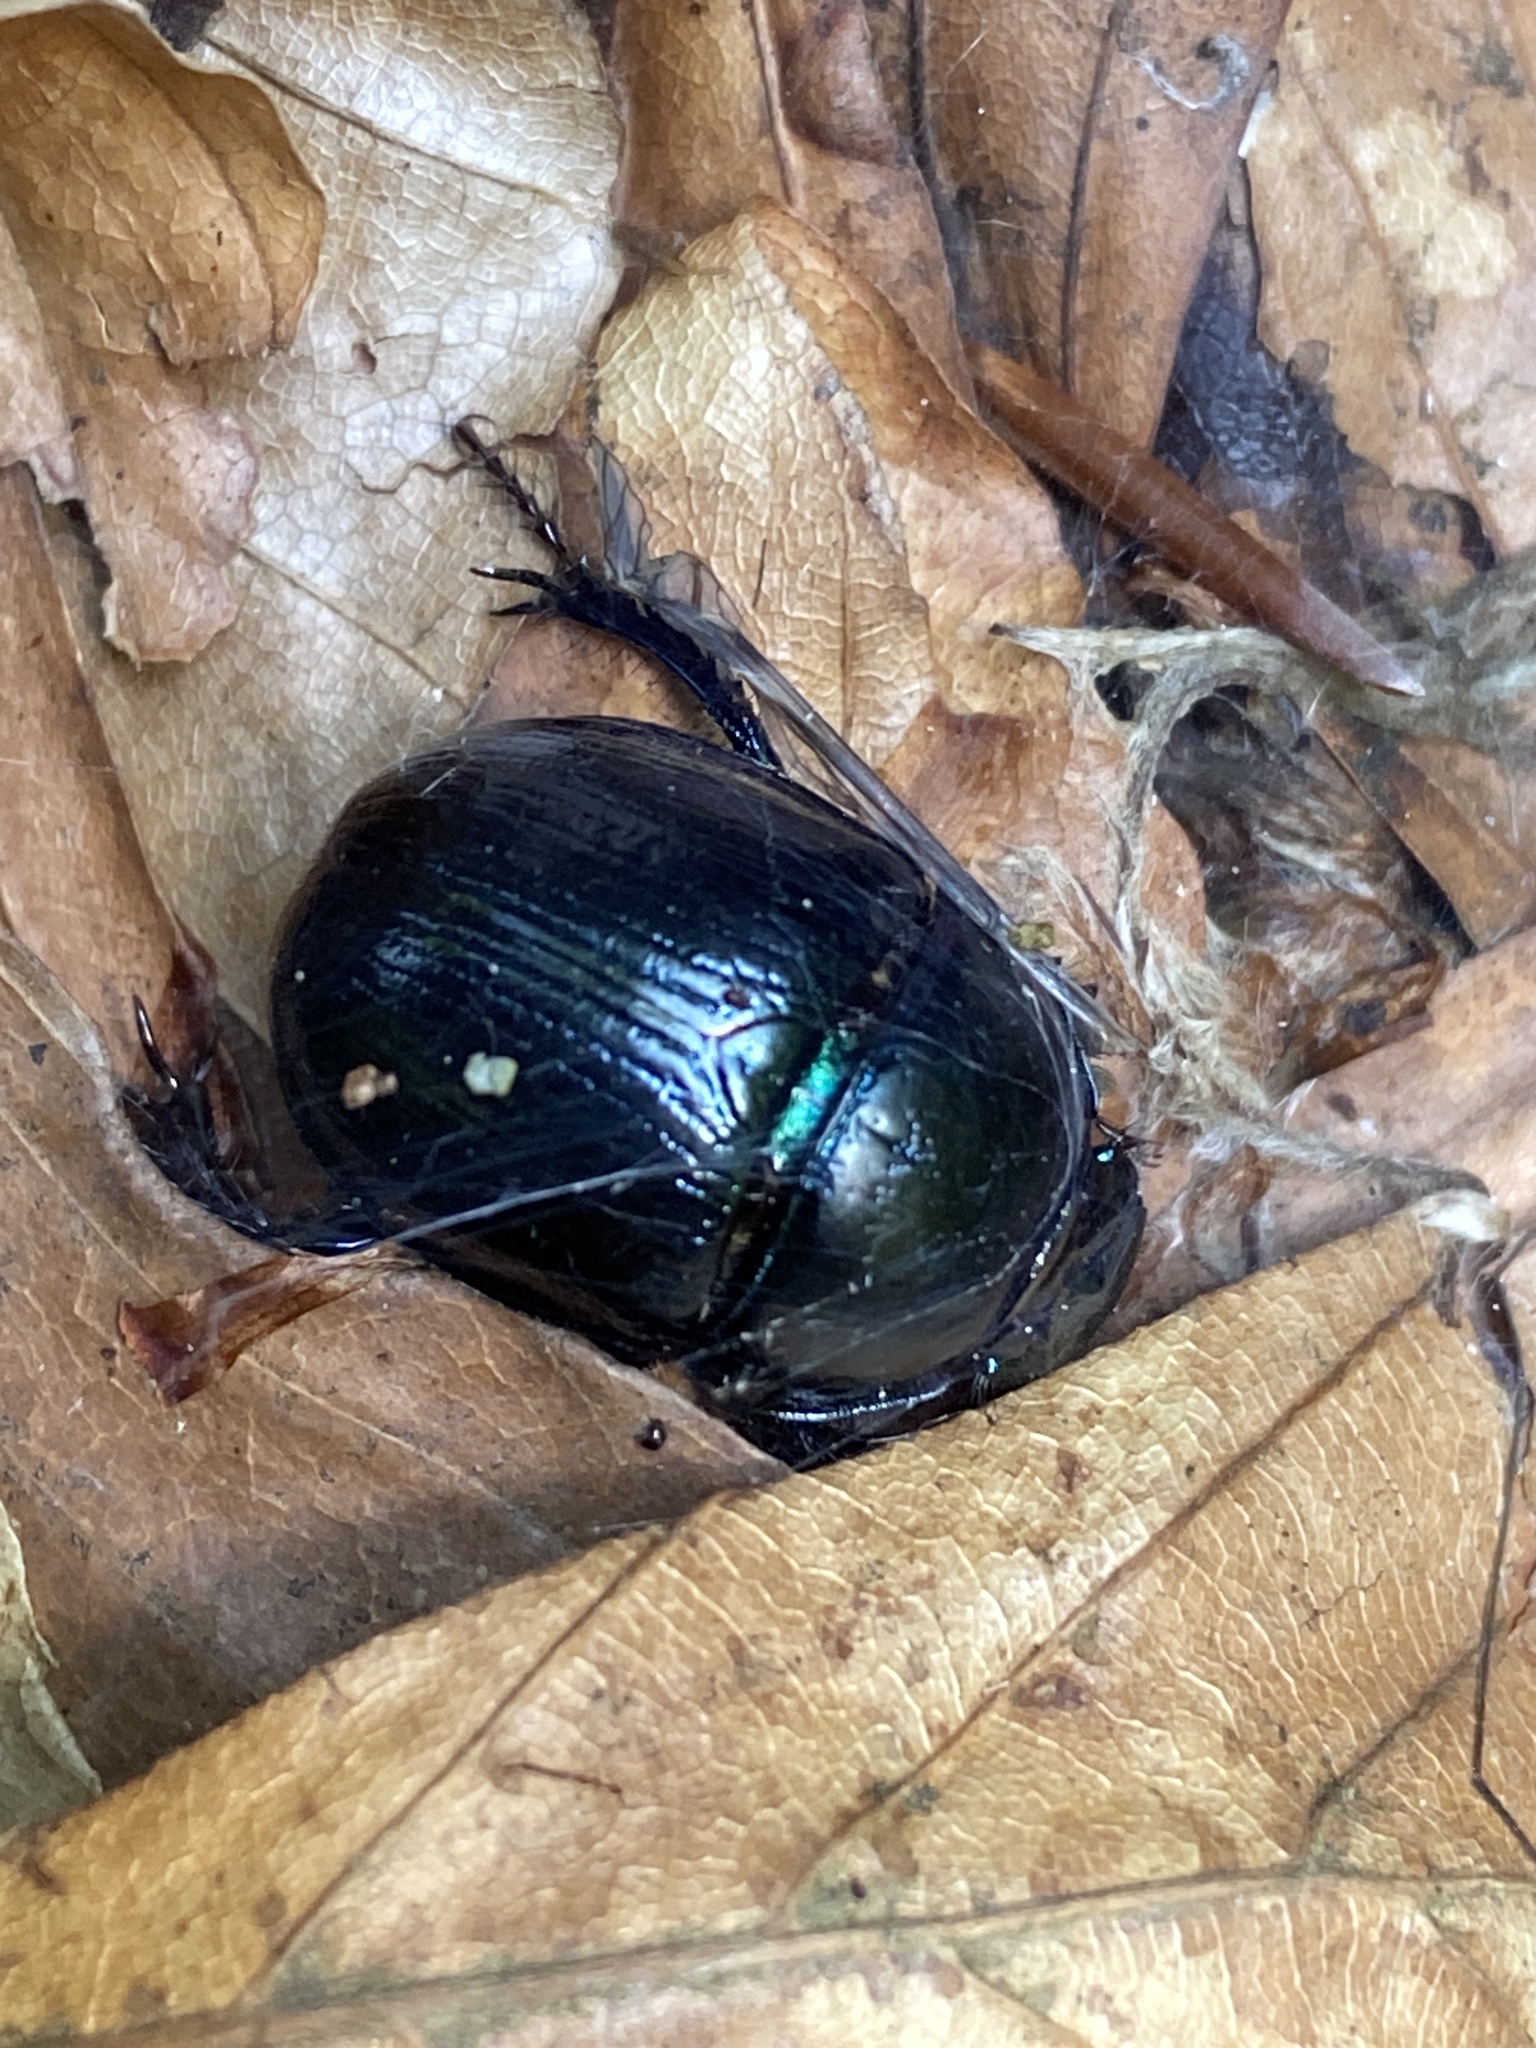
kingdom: Animalia
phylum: Arthropoda
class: Insecta
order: Coleoptera
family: Geotrupidae
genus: Anoplotrupes
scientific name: Anoplotrupes stercorosus
